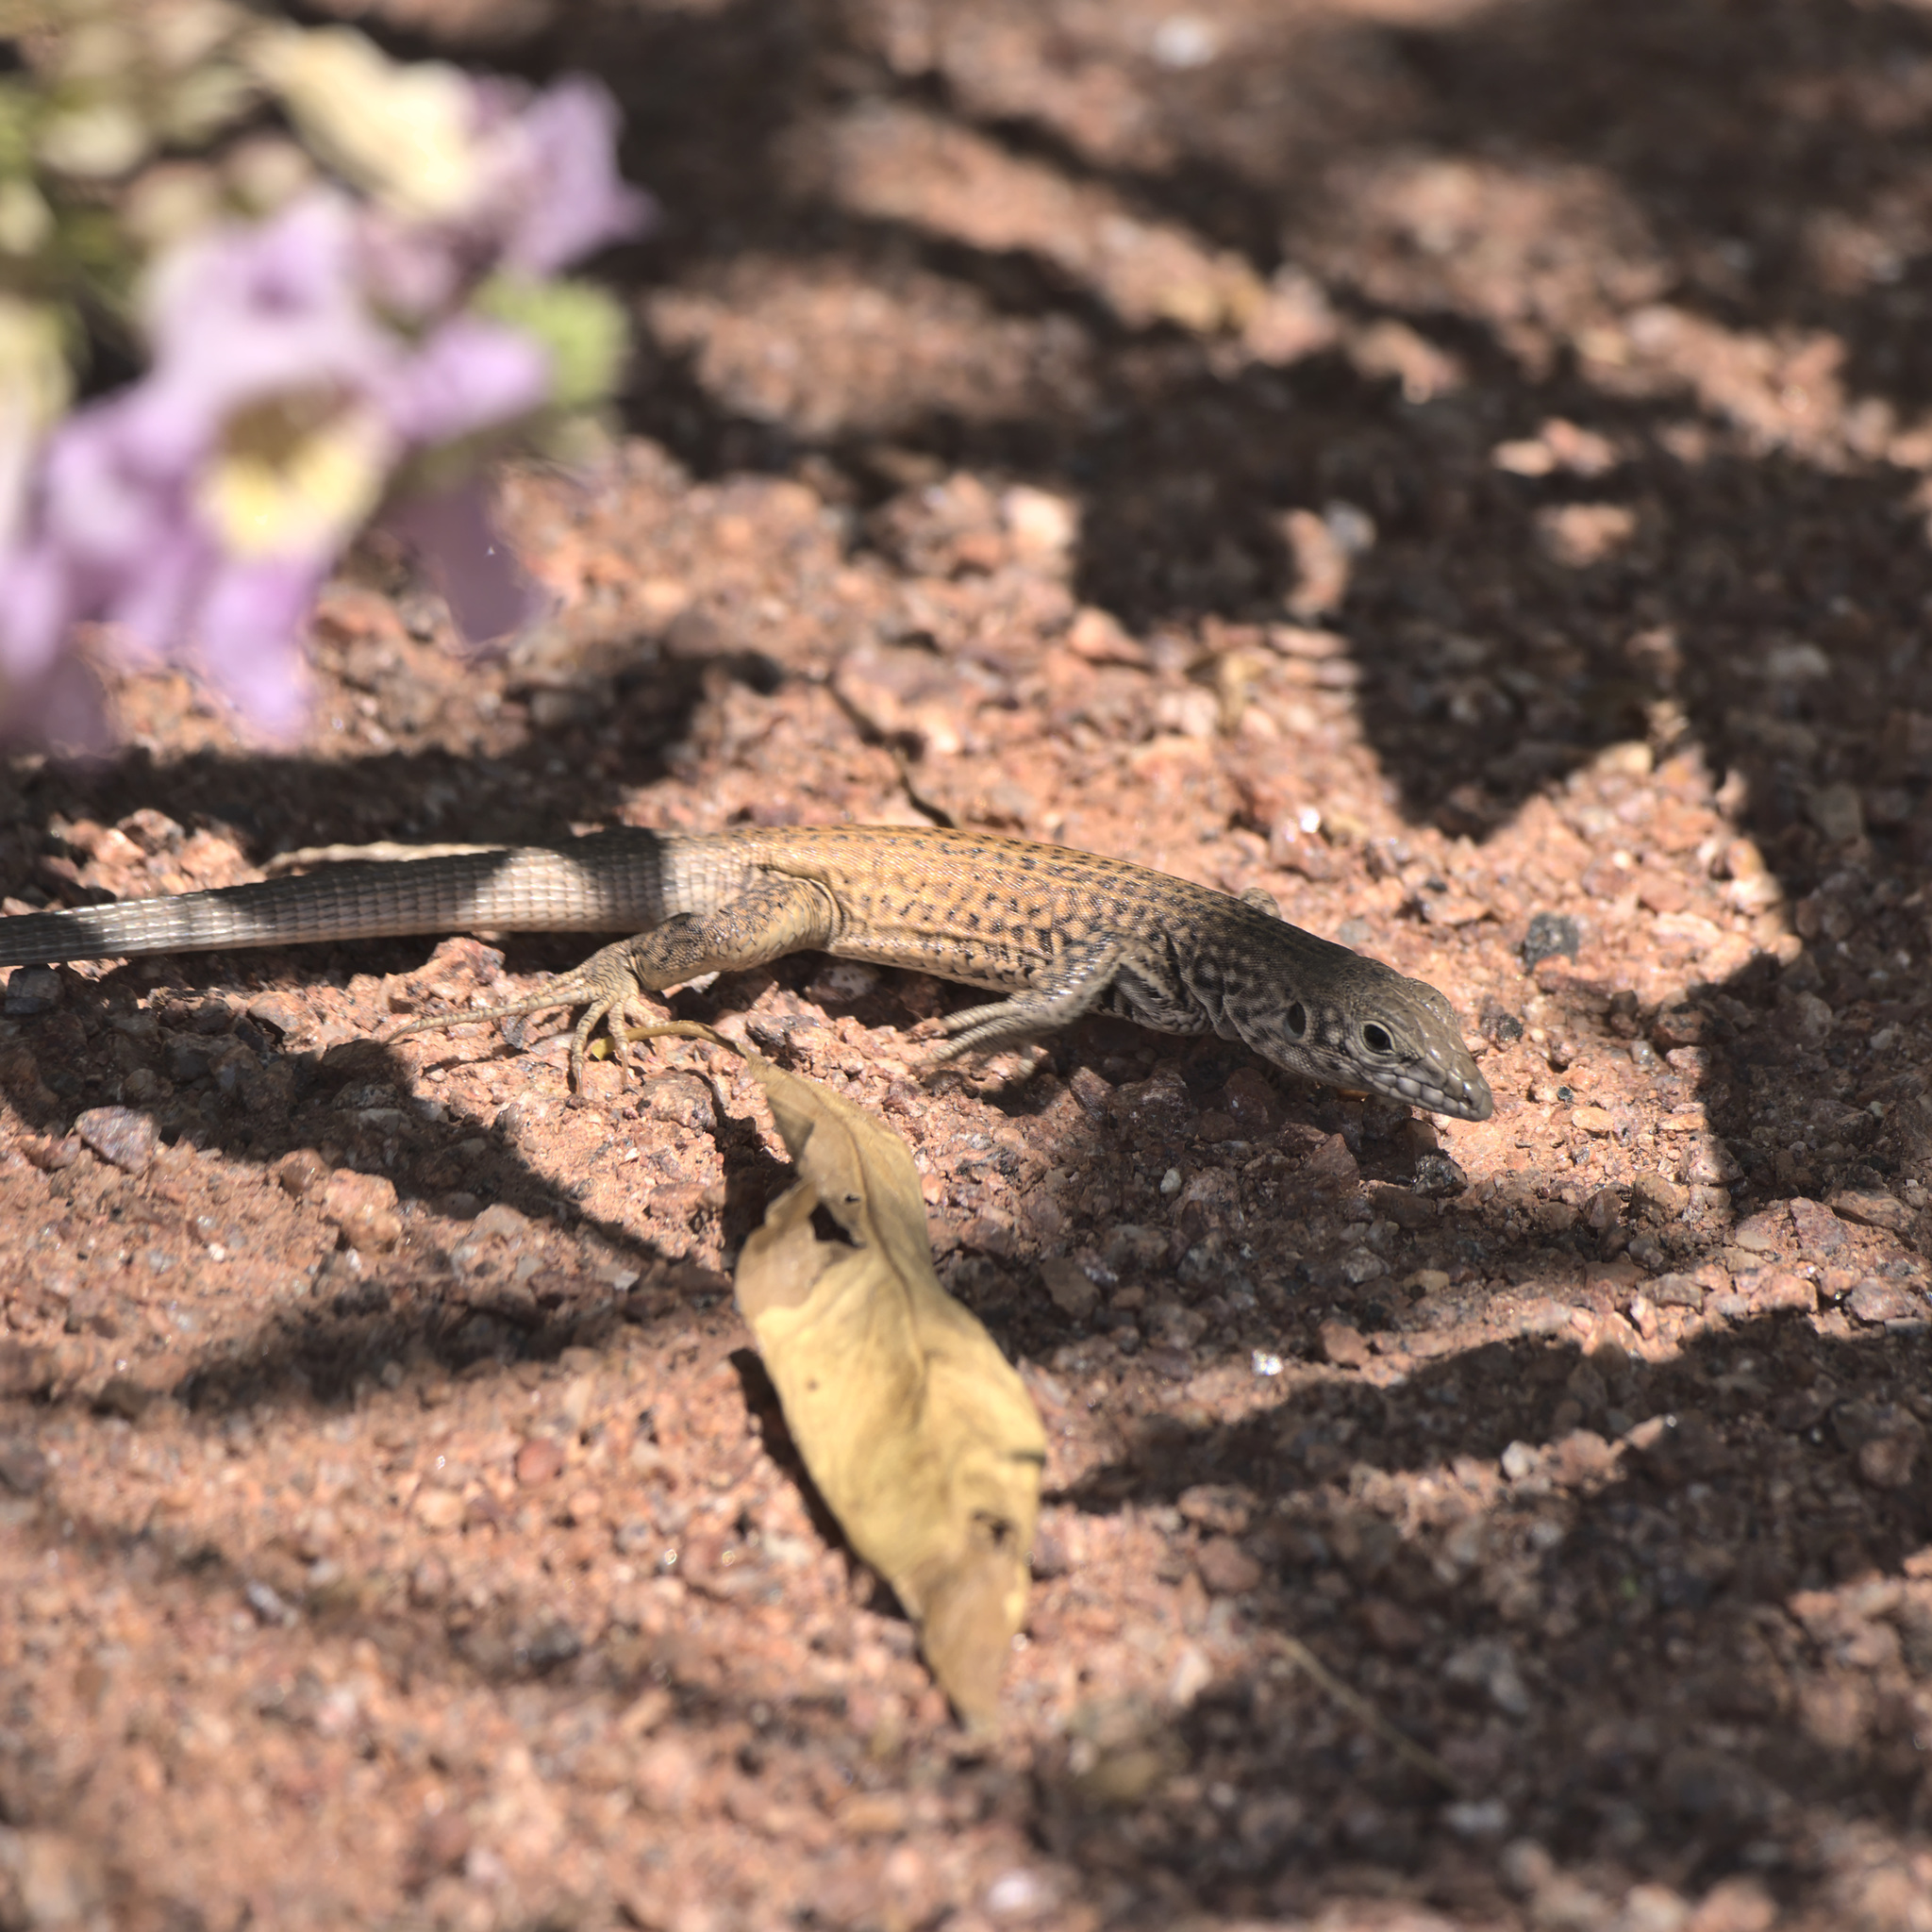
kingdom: Animalia
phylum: Chordata
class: Squamata
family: Teiidae
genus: Aspidoscelis
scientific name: Aspidoscelis tigris
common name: Tiger whiptail
